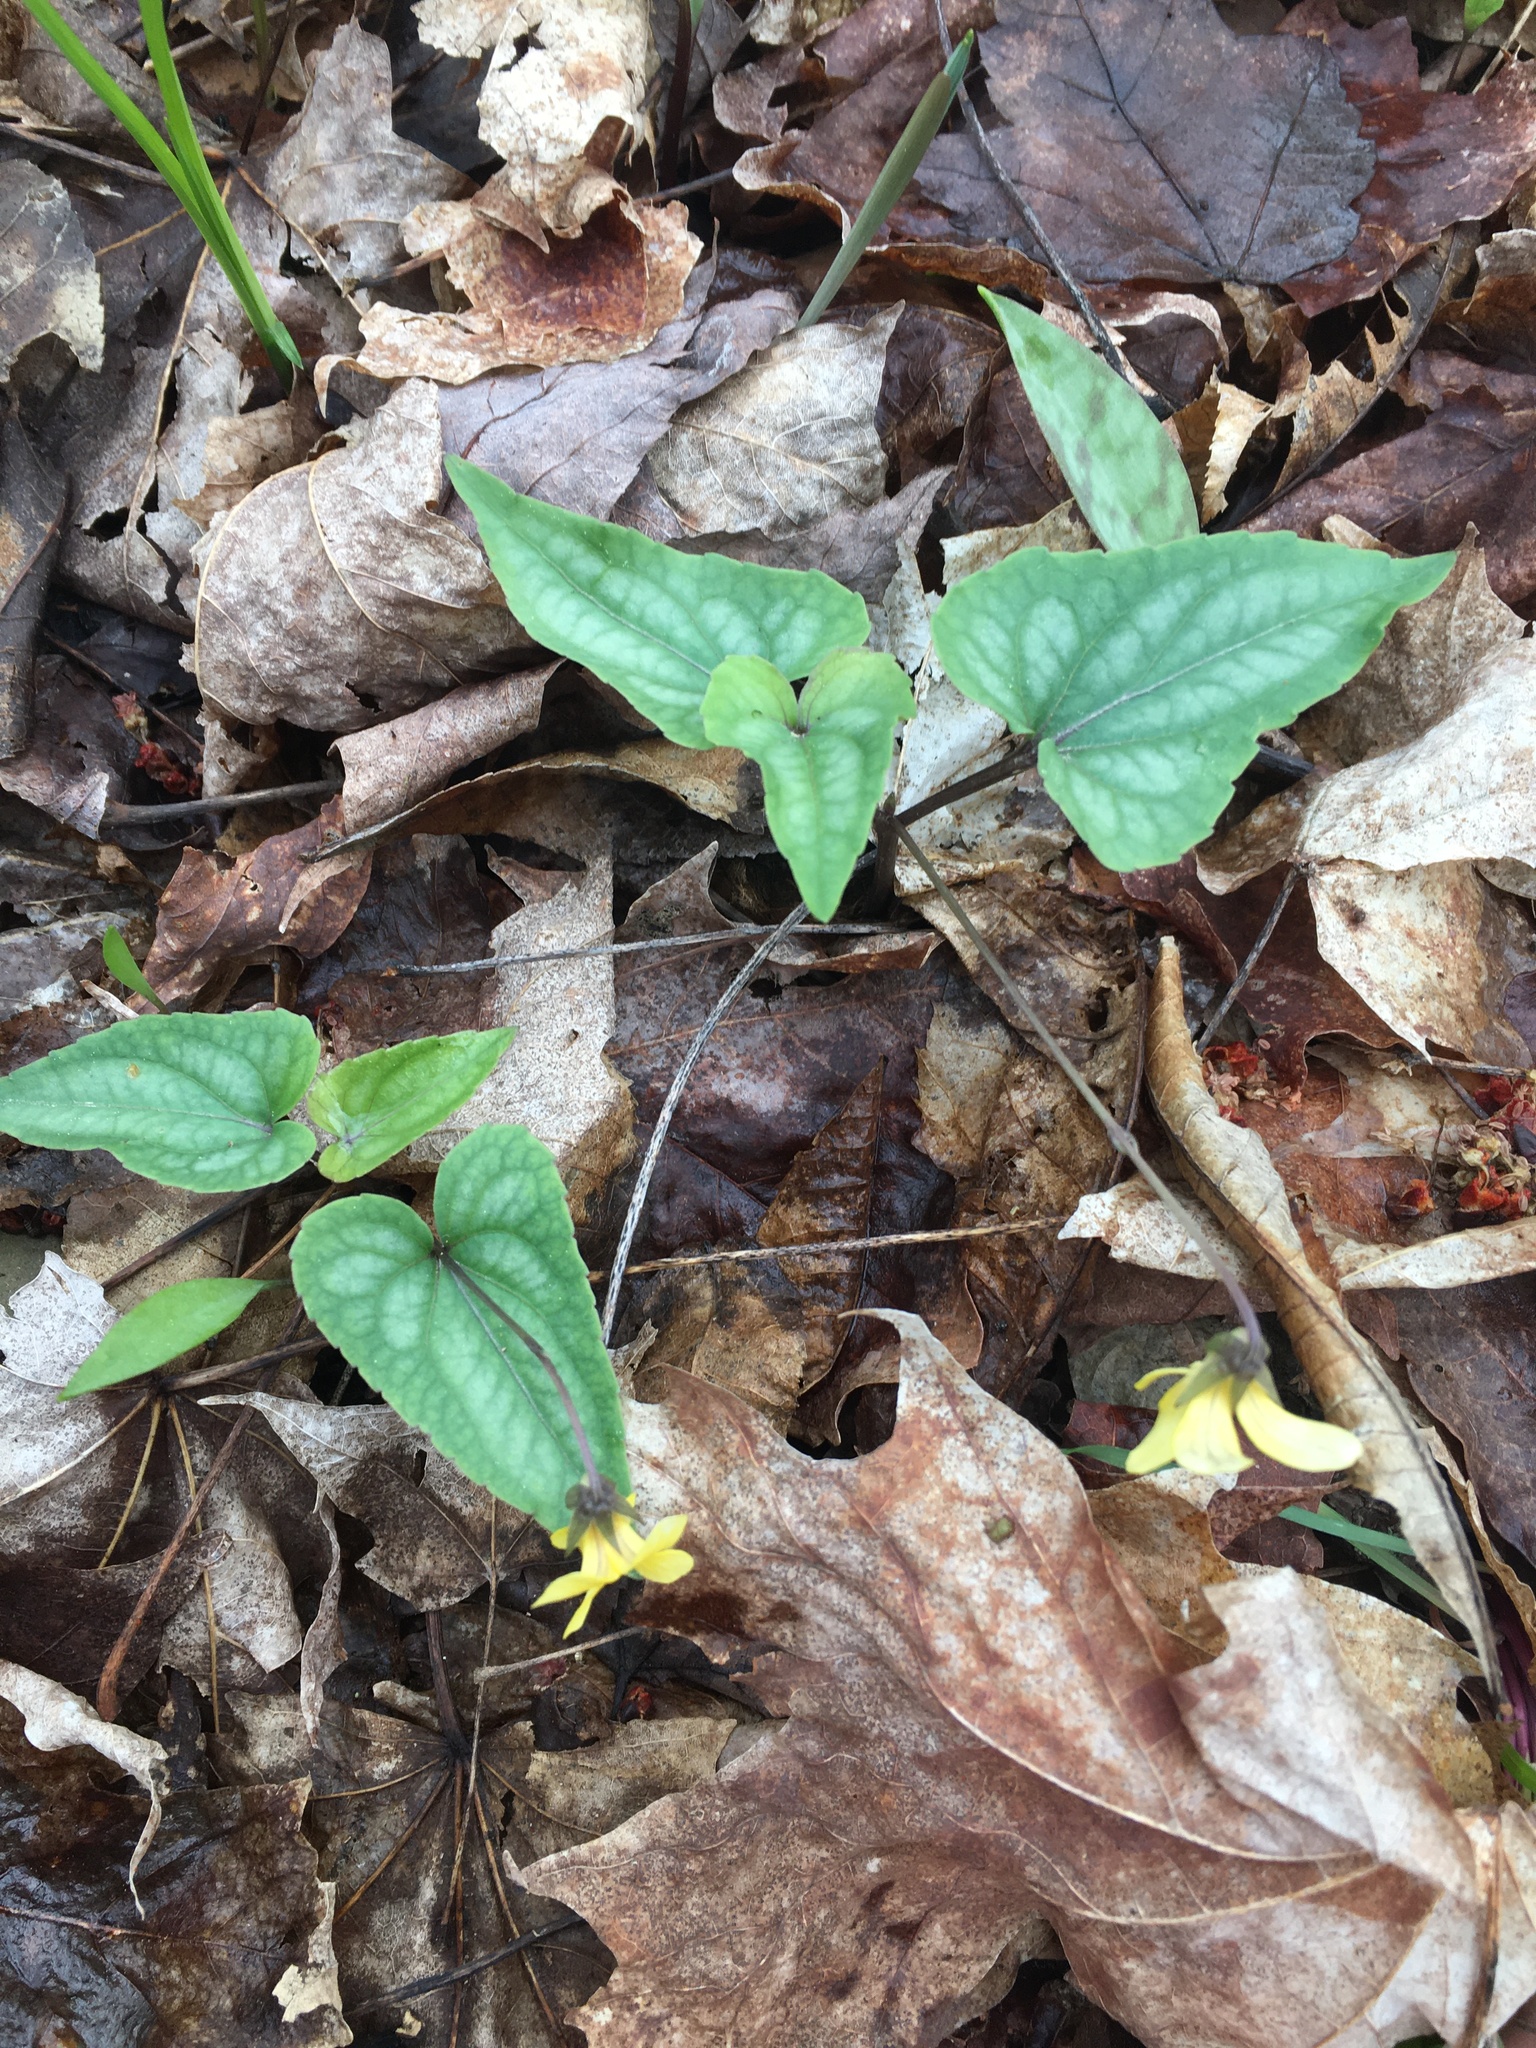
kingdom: Plantae
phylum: Tracheophyta
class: Magnoliopsida
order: Malpighiales
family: Violaceae
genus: Viola
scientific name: Viola hastata
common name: Spear-leaf violet
